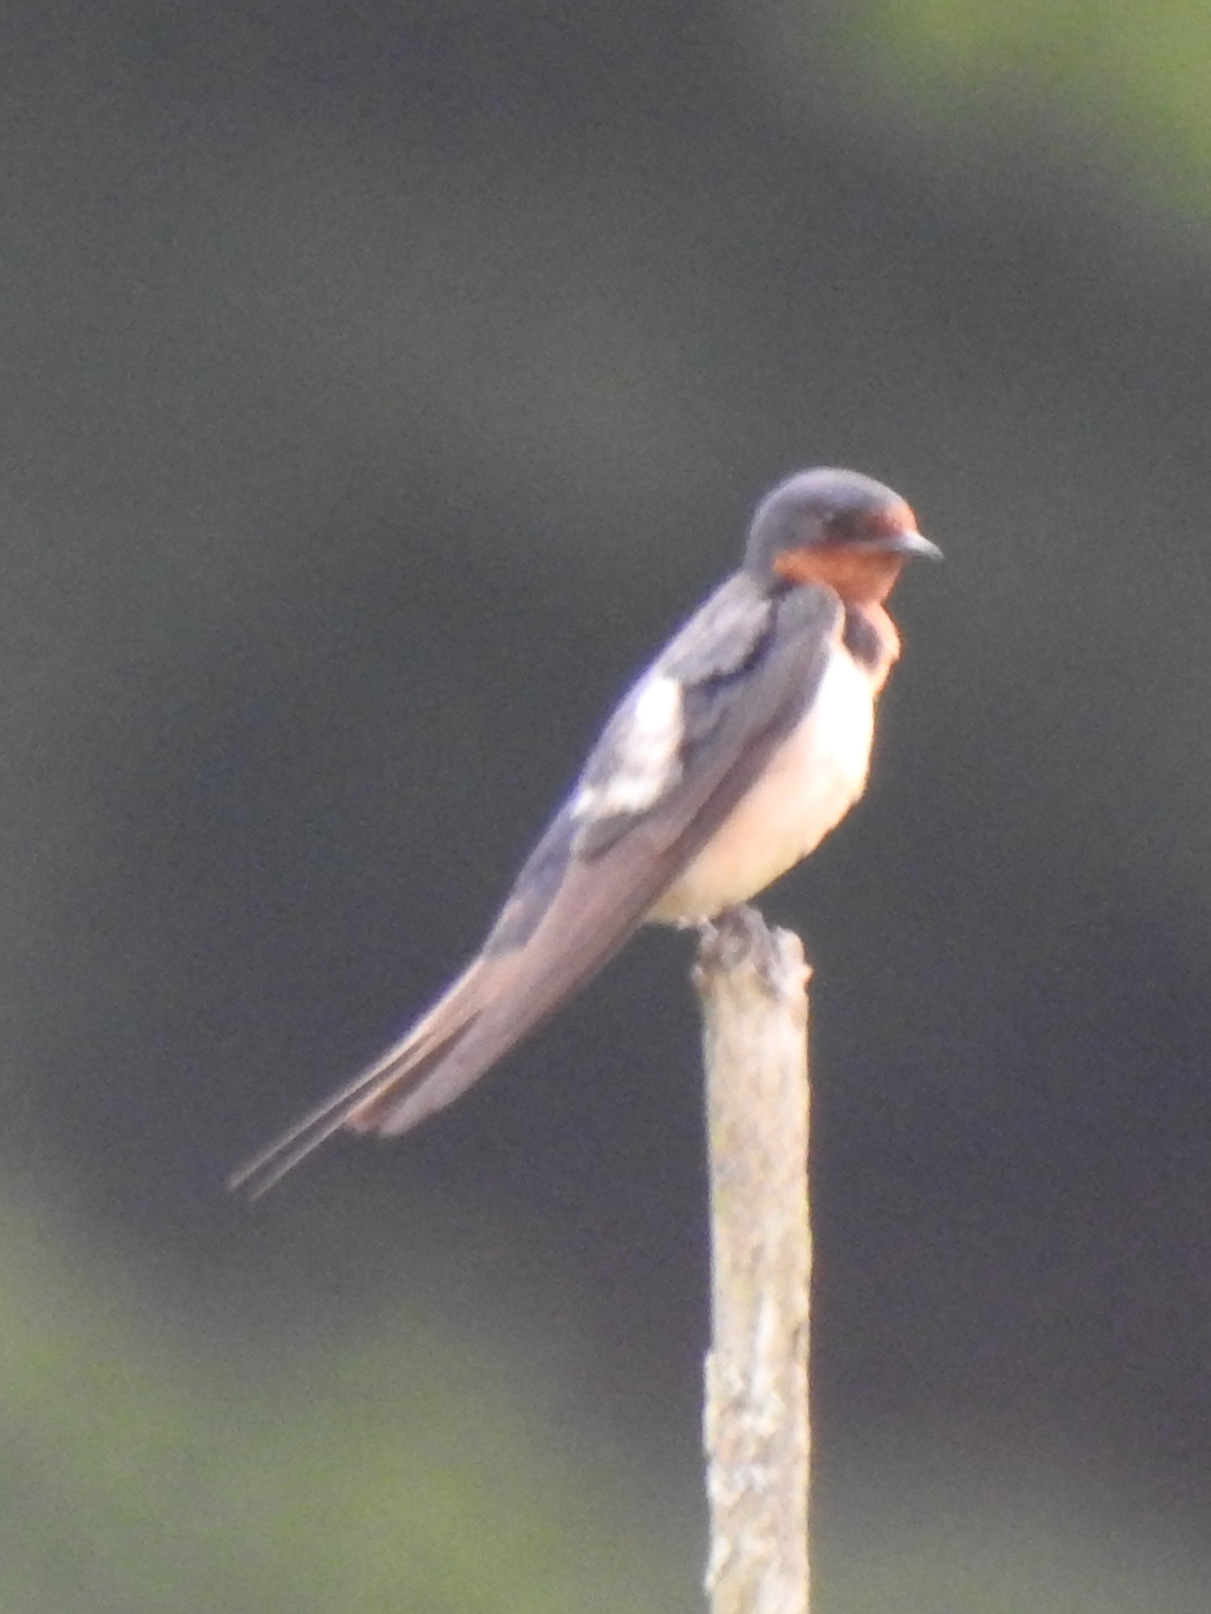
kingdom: Animalia
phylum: Chordata
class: Aves
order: Passeriformes
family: Hirundinidae
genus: Hirundo
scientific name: Hirundo rustica
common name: Barn swallow
